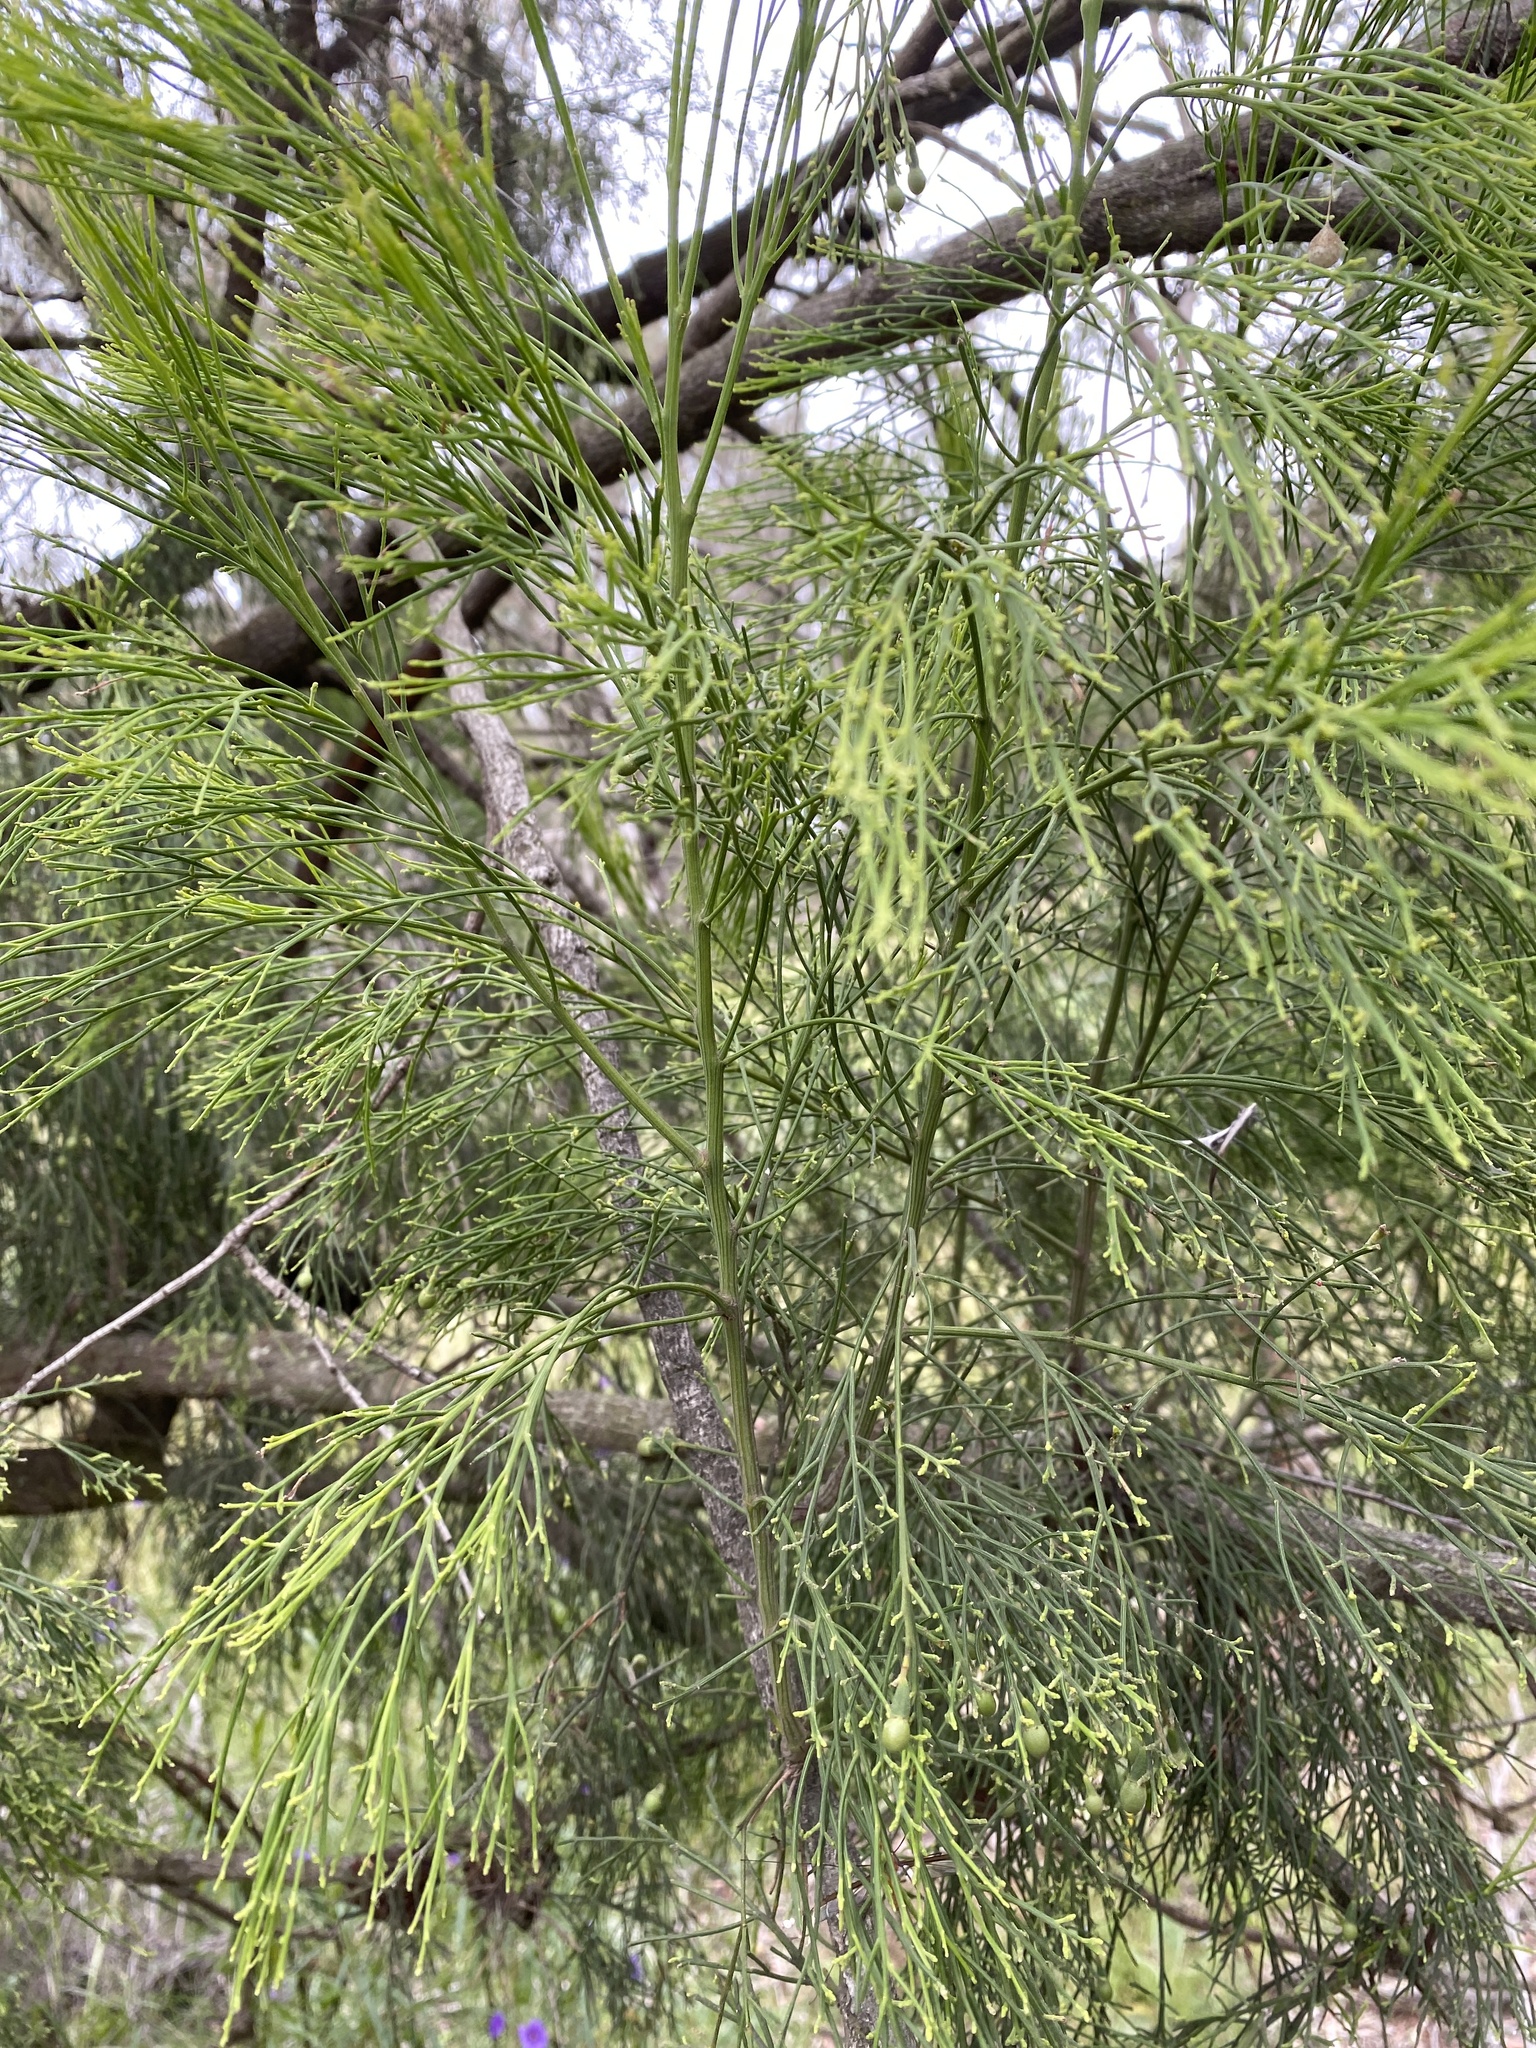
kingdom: Plantae
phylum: Tracheophyta
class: Magnoliopsida
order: Santalales
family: Santalaceae
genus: Exocarpos
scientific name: Exocarpos cupressiformis
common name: Cherry ballart
